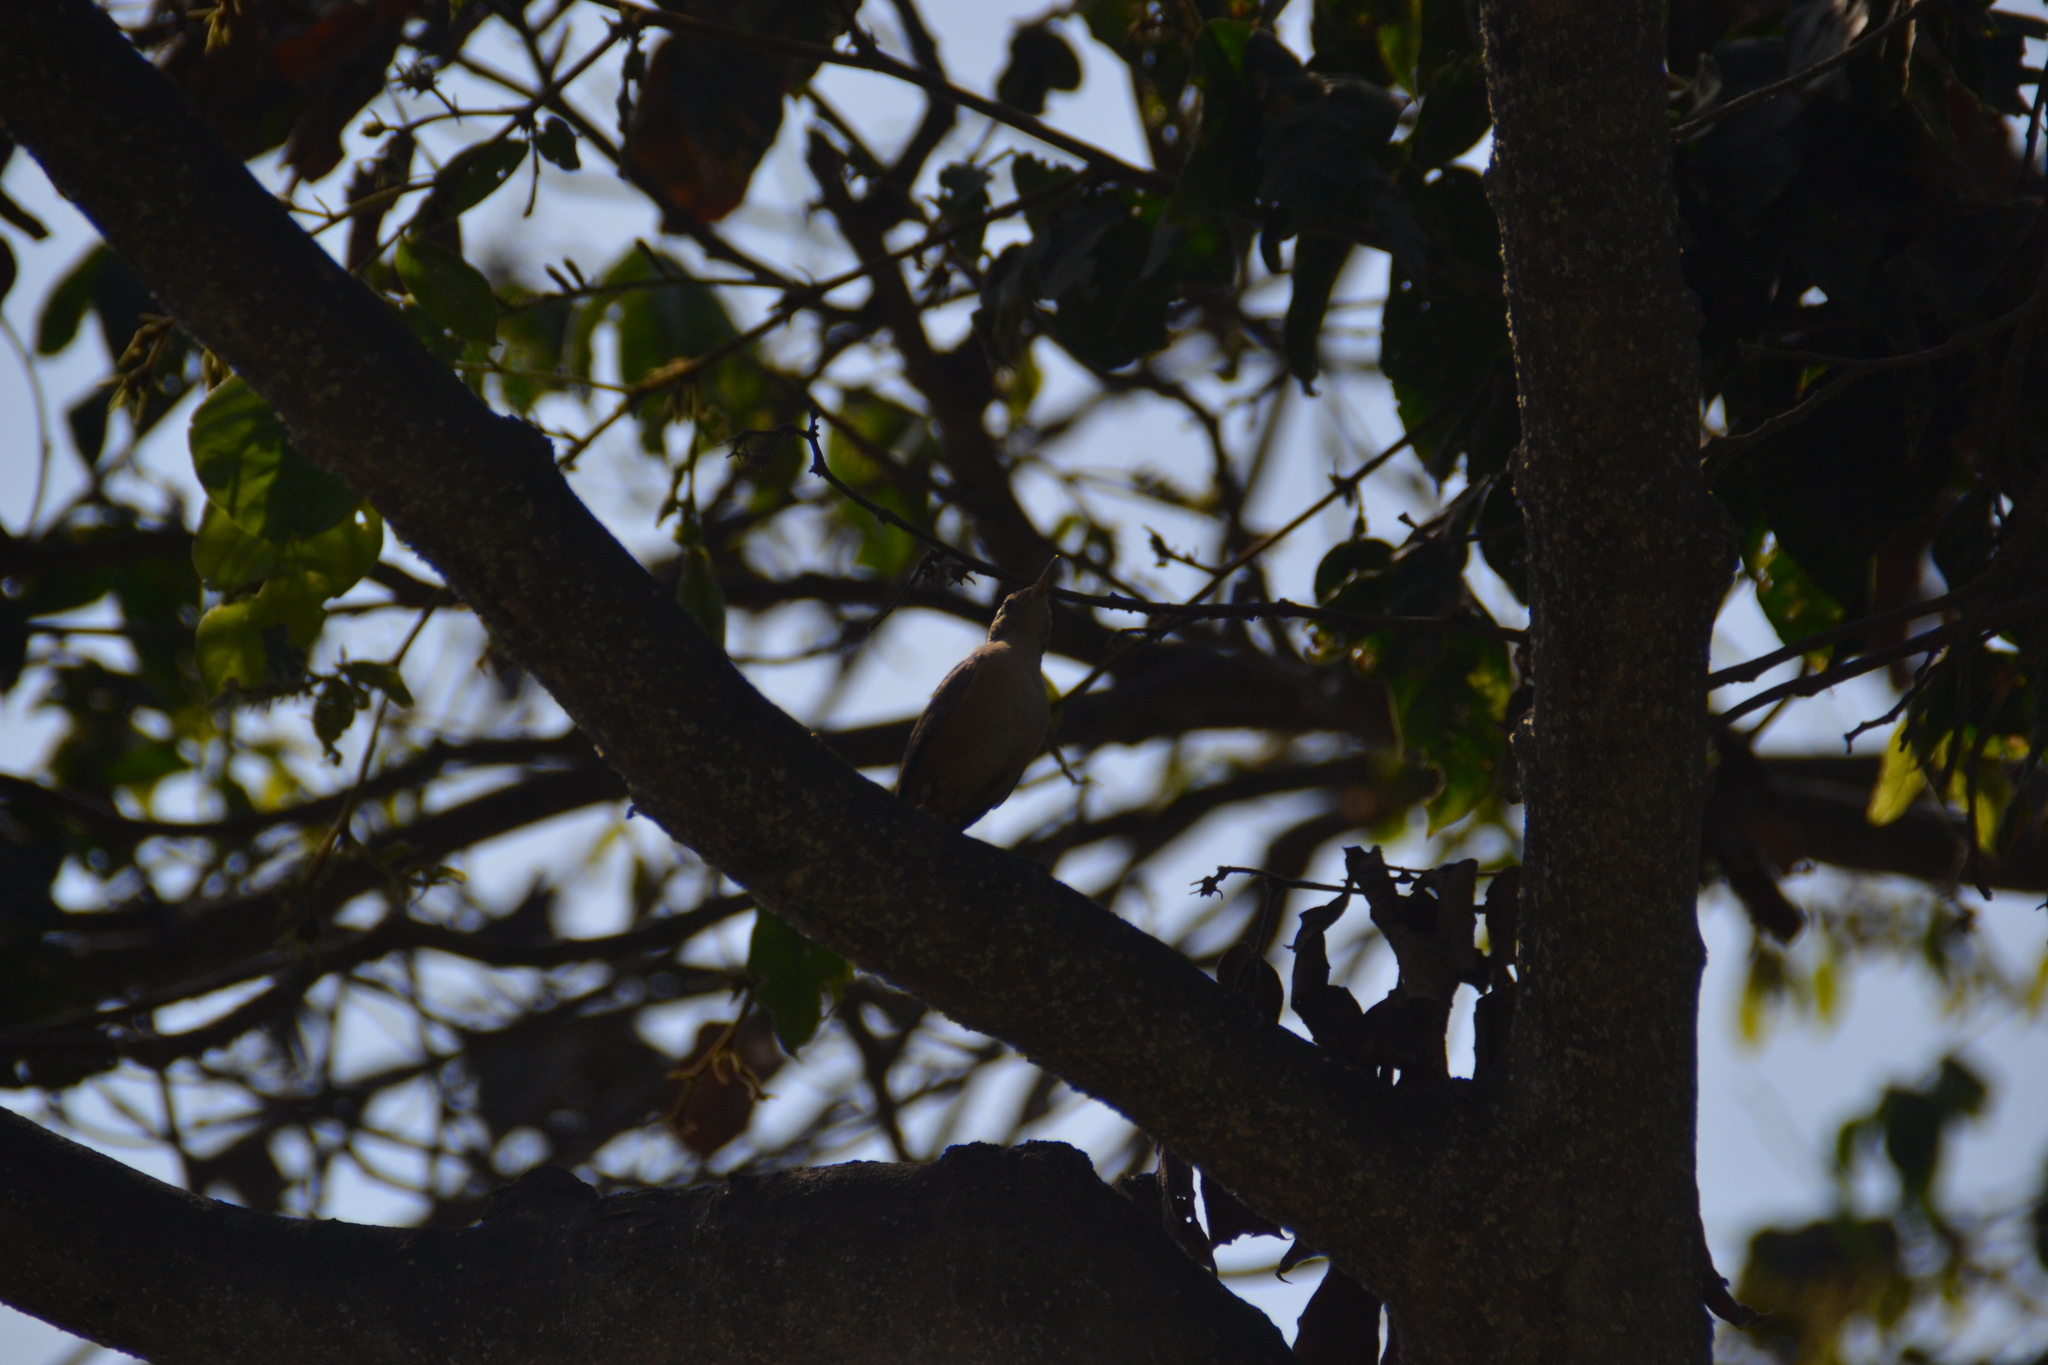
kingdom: Animalia
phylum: Chordata
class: Aves
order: Passeriformes
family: Troglodytidae
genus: Troglodytes
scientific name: Troglodytes aedon
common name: House wren
